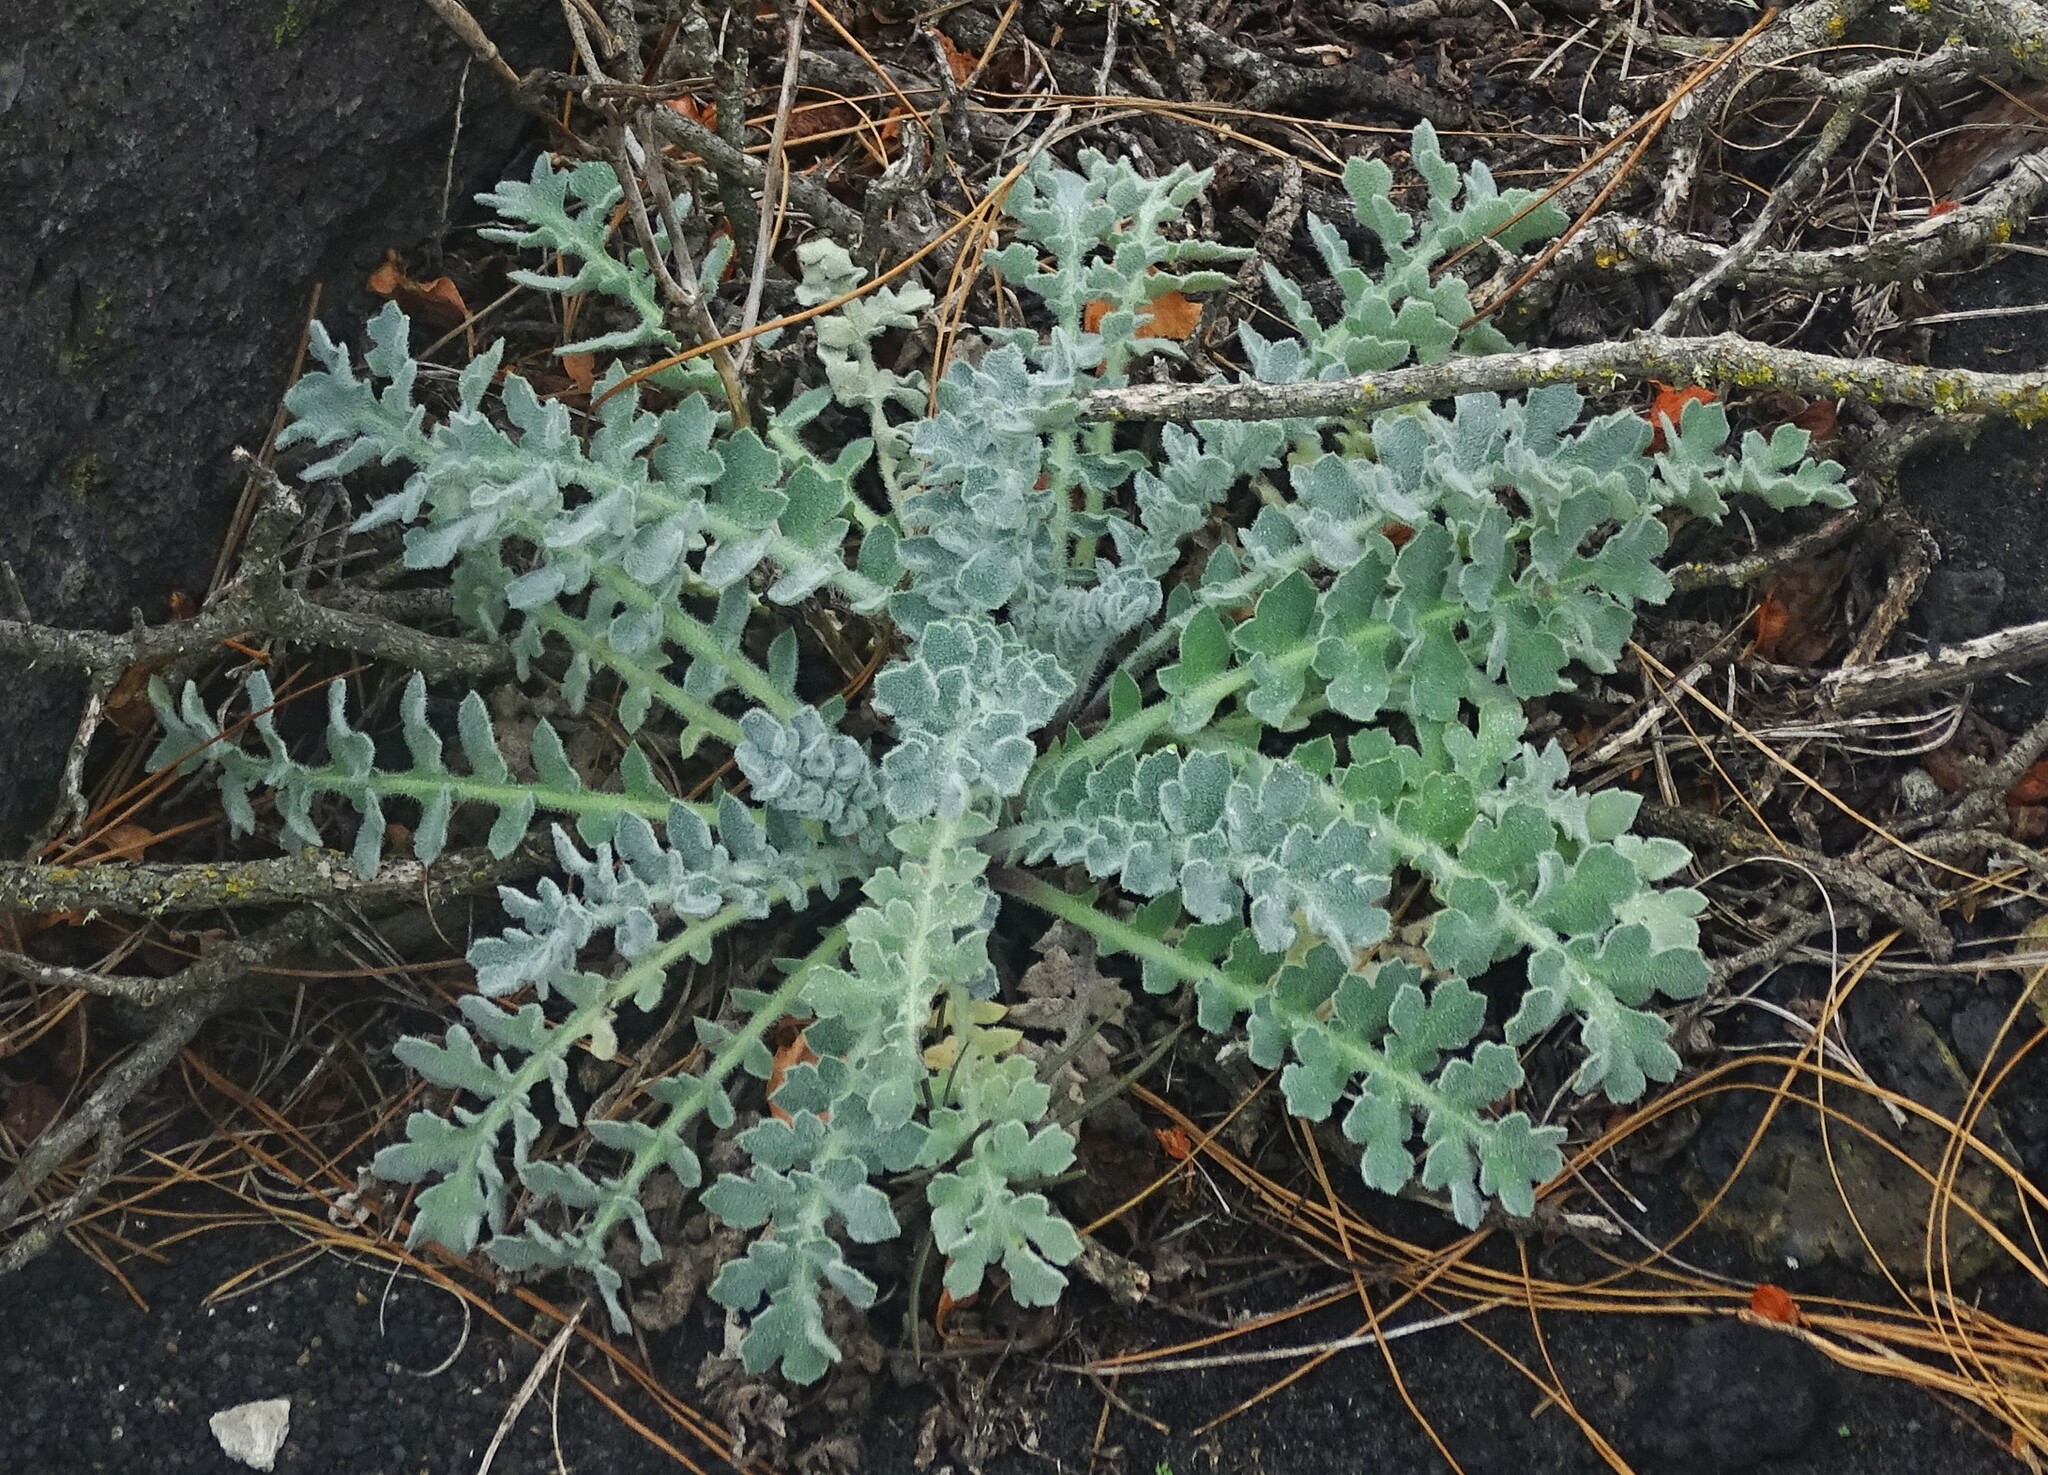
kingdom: Plantae
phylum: Tracheophyta
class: Magnoliopsida
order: Ranunculales
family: Papaveraceae
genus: Glaucium
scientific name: Glaucium flavum
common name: Yellow horned-poppy
